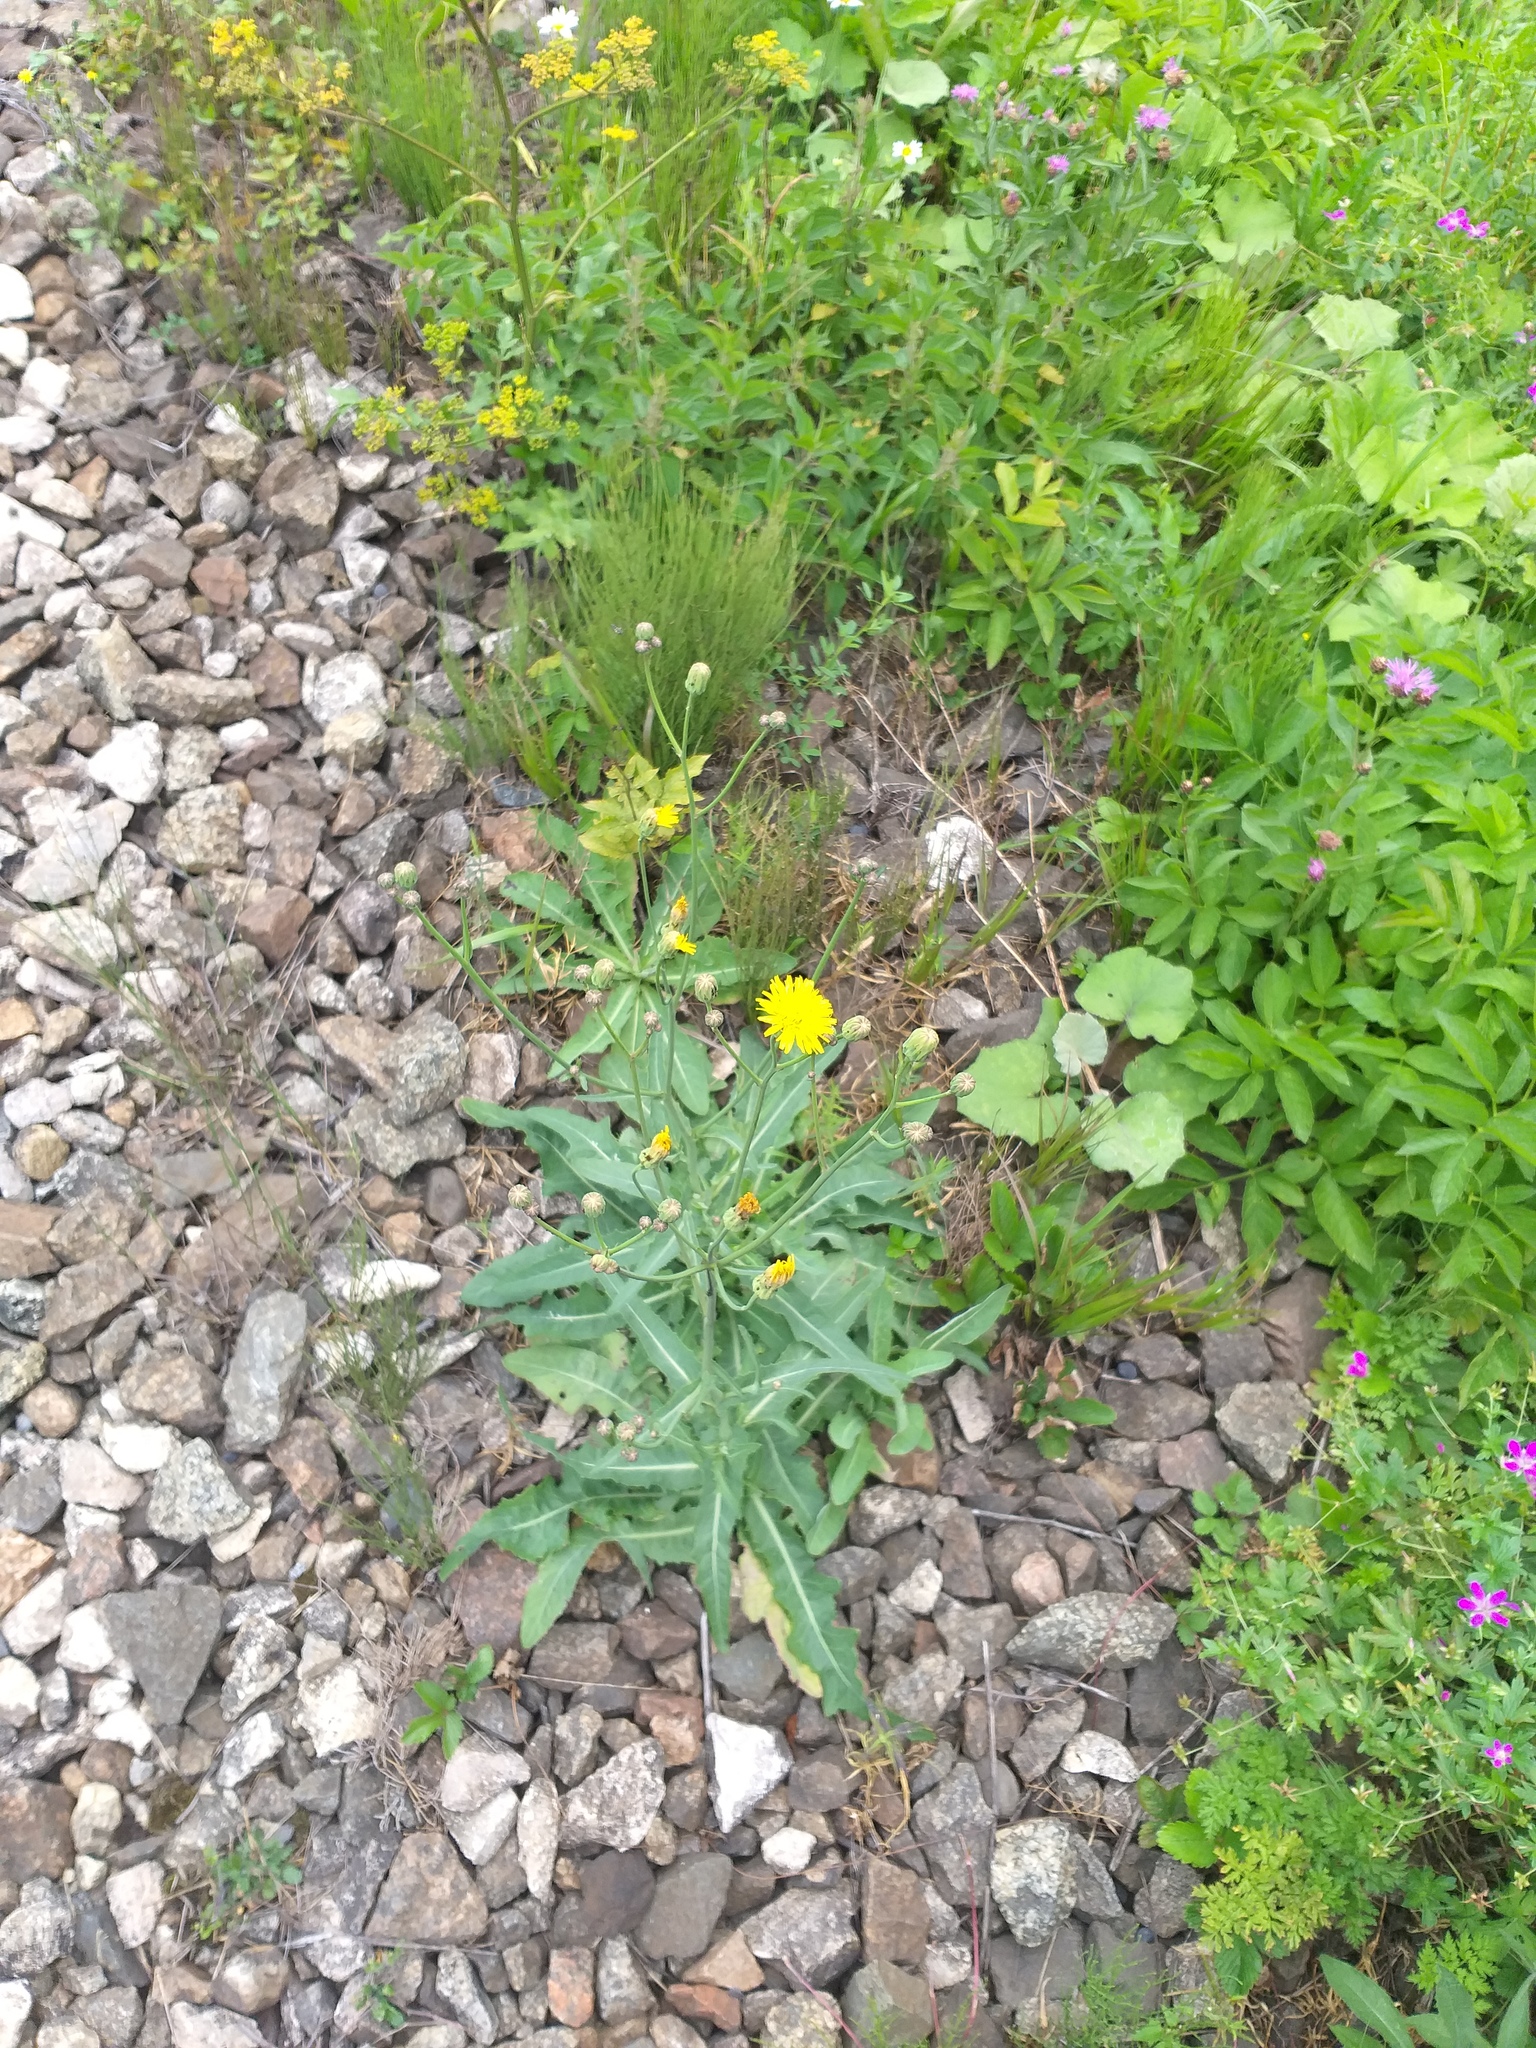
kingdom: Plantae
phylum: Tracheophyta
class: Magnoliopsida
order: Asterales
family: Asteraceae
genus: Sonchus
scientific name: Sonchus arvensis
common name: Perennial sow-thistle
